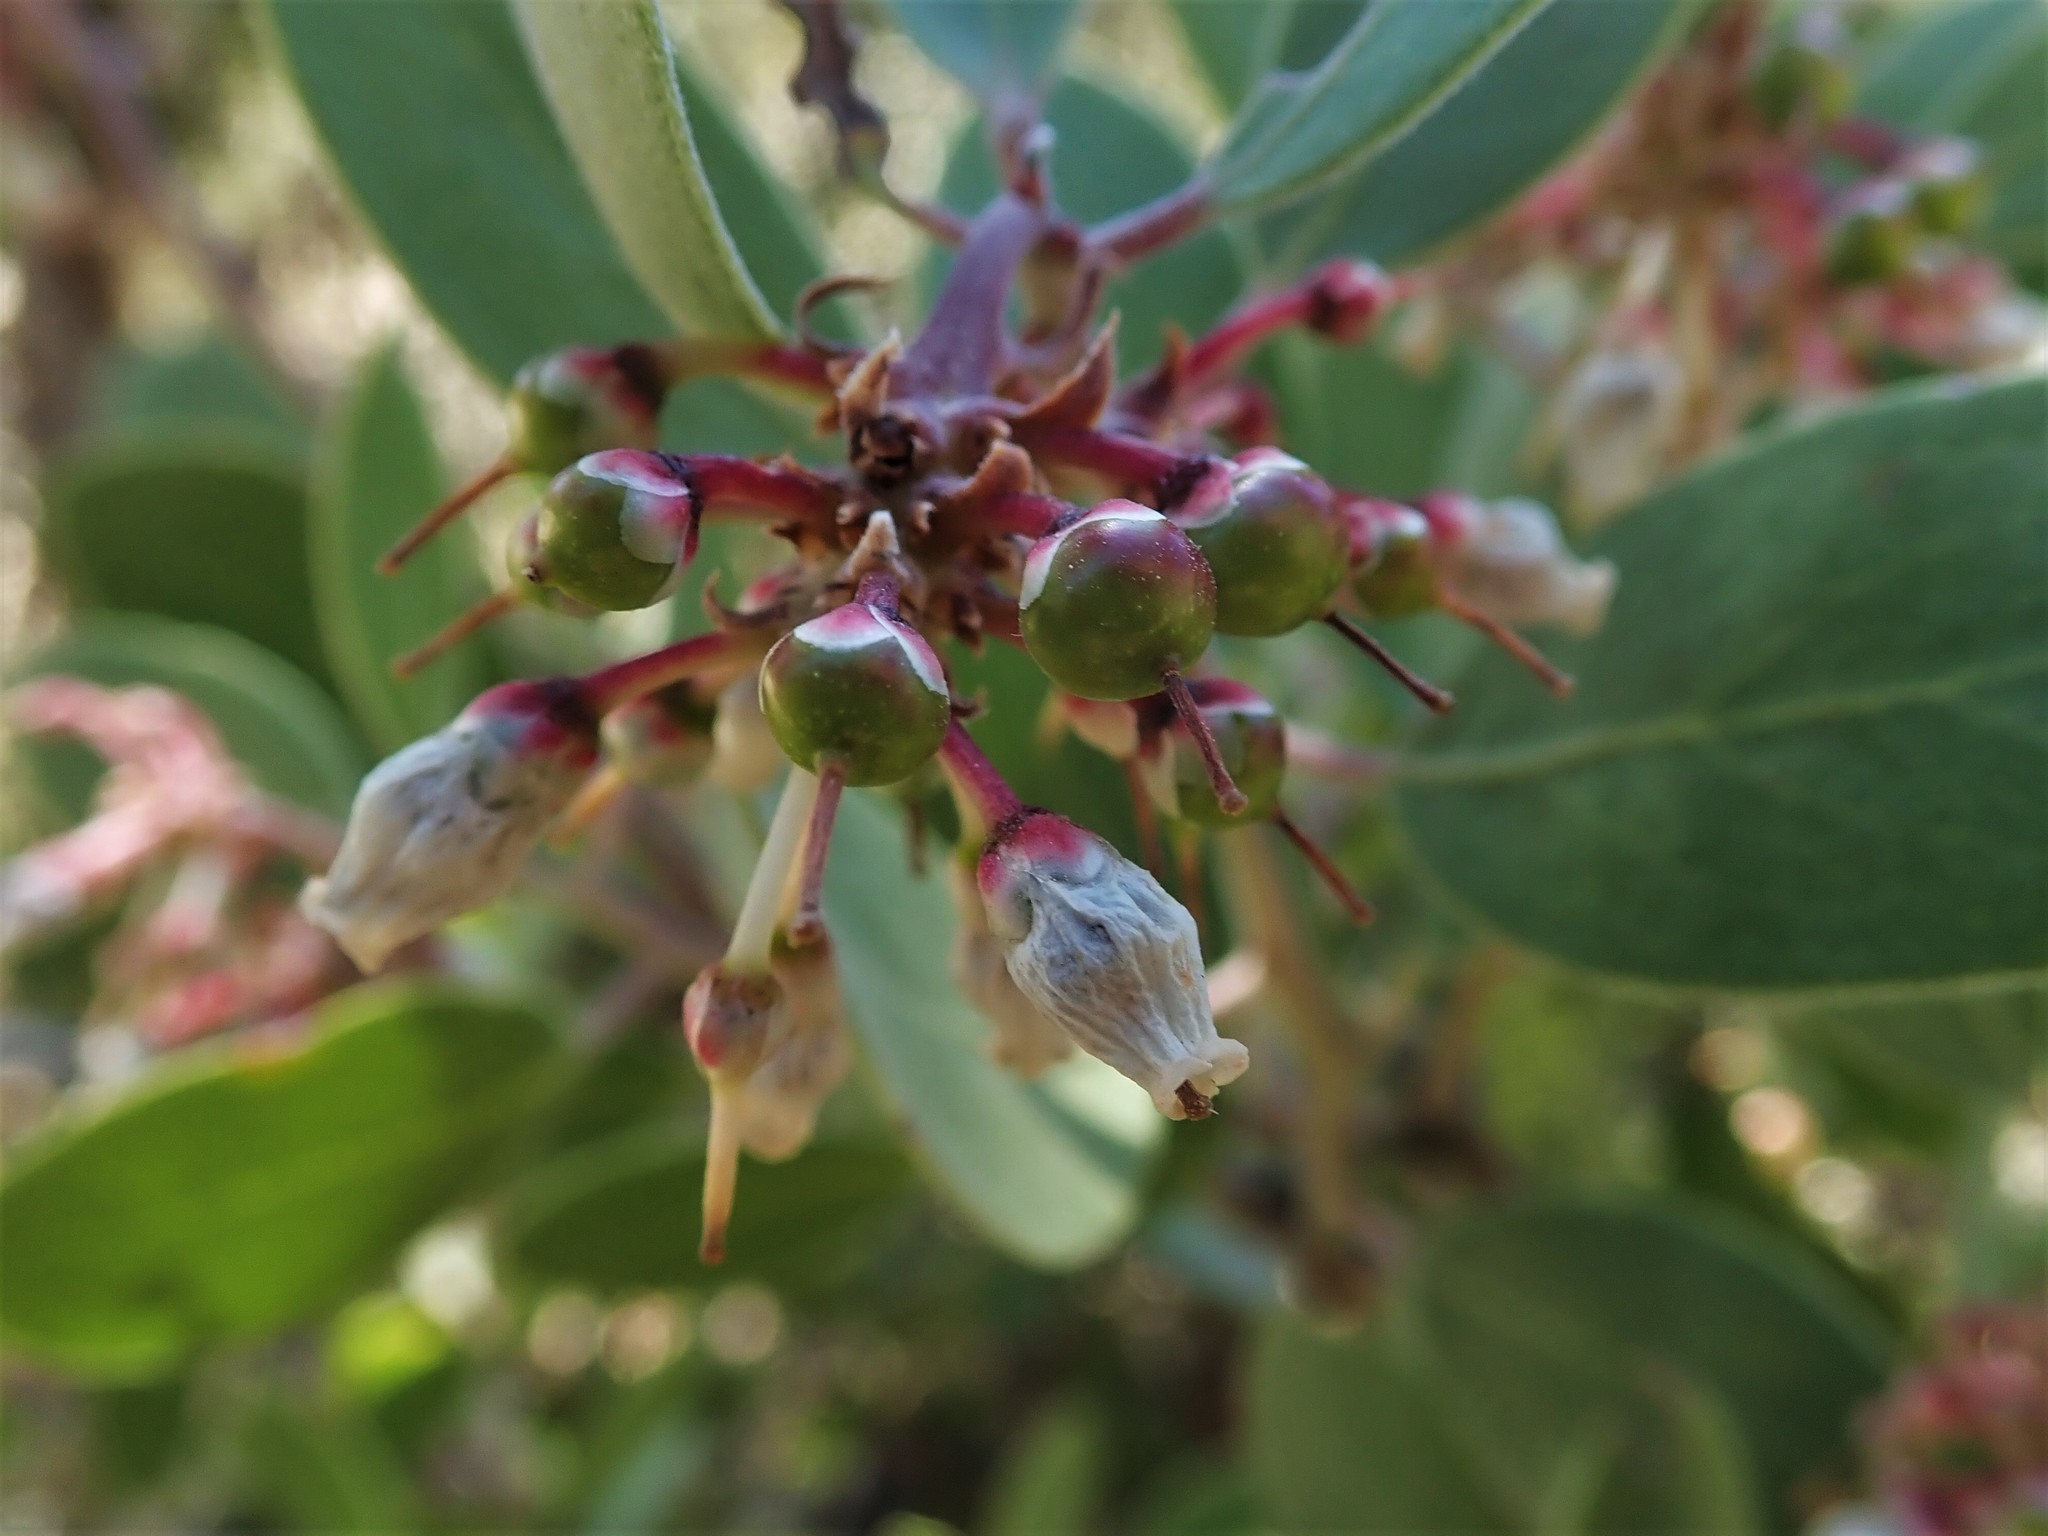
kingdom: Plantae
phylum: Tracheophyta
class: Magnoliopsida
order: Ericales
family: Ericaceae
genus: Arctostaphylos
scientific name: Arctostaphylos pungens
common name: Mexican manzanita
